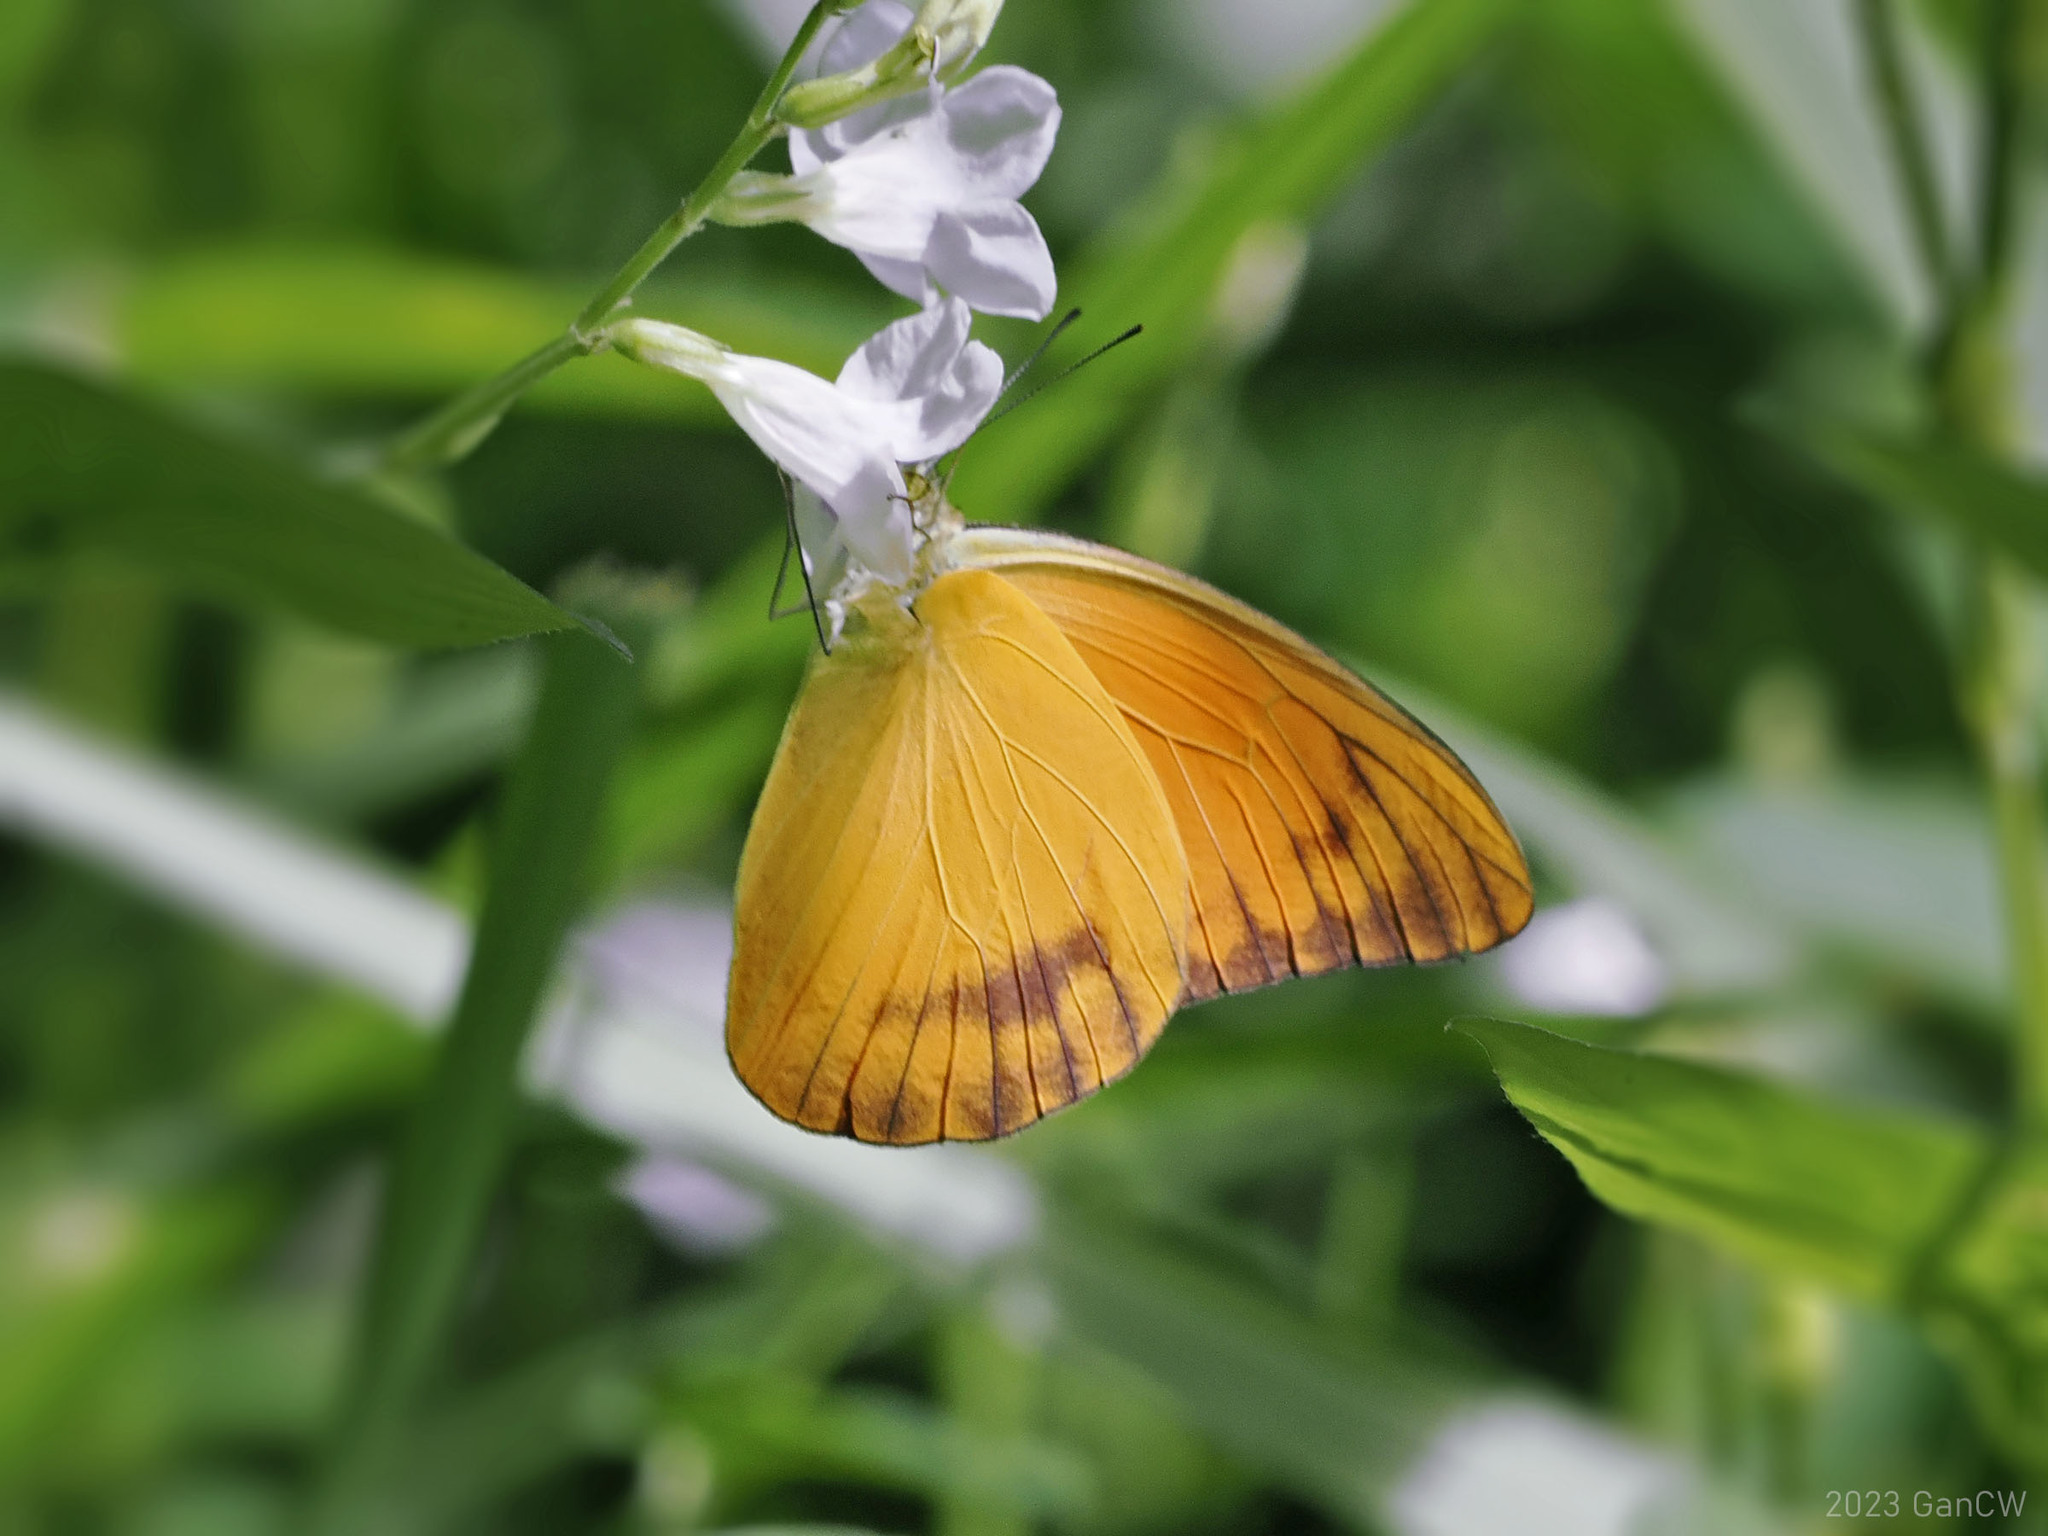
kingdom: Animalia
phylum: Arthropoda
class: Insecta
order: Lepidoptera
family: Pieridae
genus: Appias
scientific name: Appias nero
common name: Orange albatross
